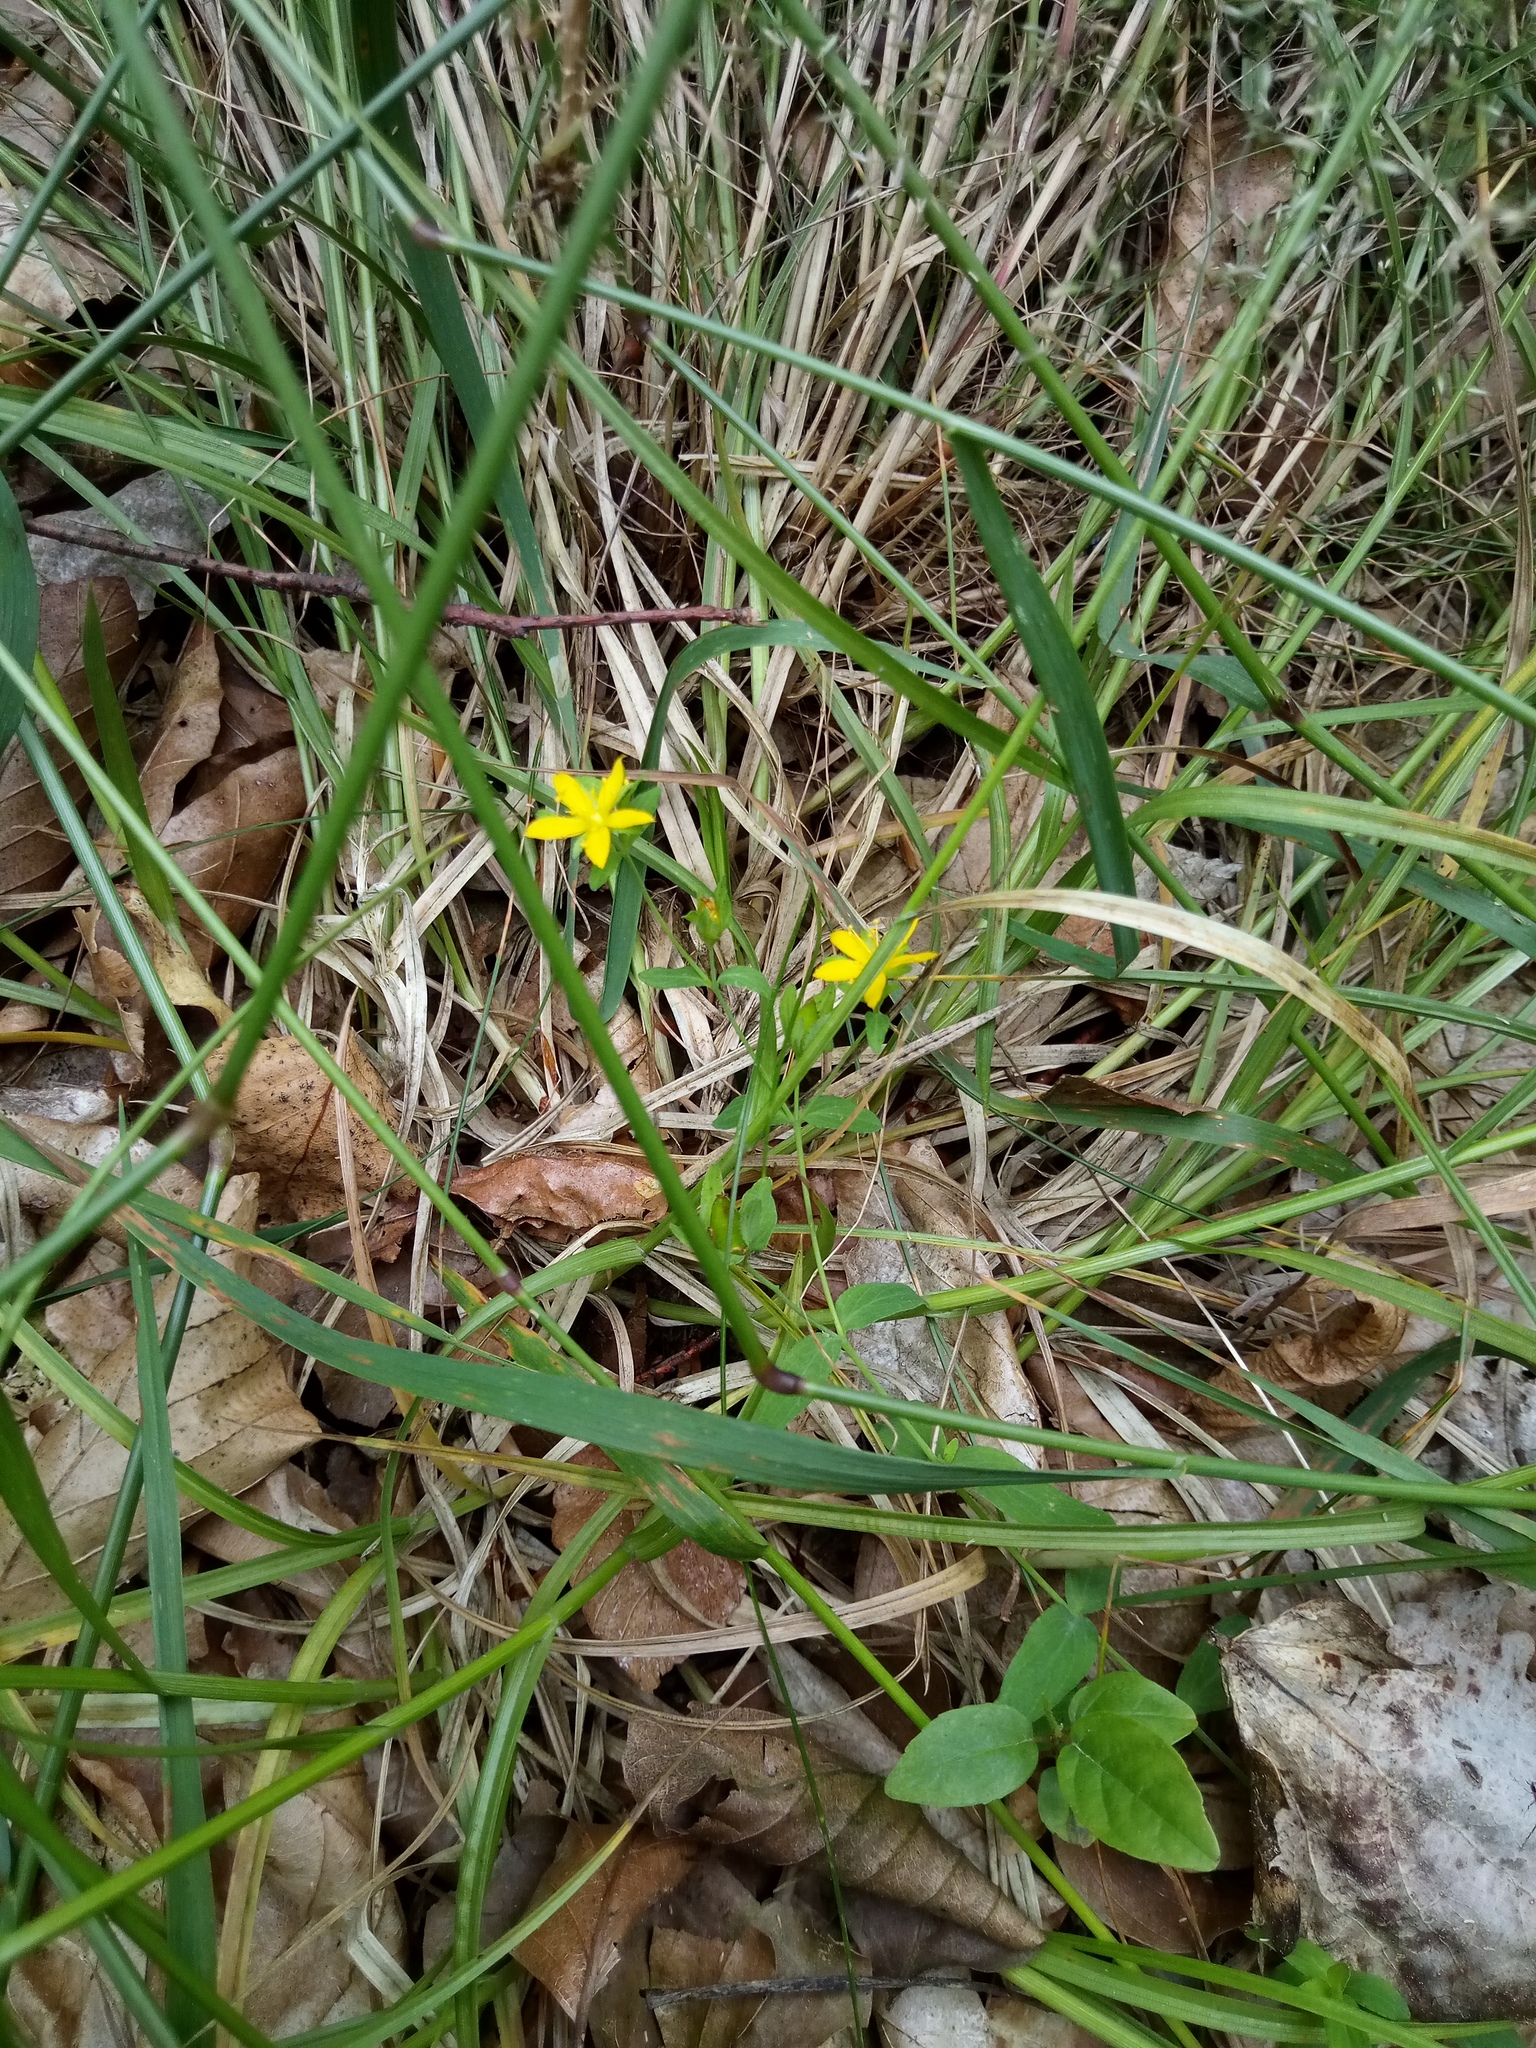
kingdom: Plantae
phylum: Tracheophyta
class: Magnoliopsida
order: Malpighiales
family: Hypericaceae
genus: Hypericum
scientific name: Hypericum humifusum
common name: Trailing st. john's-wort
